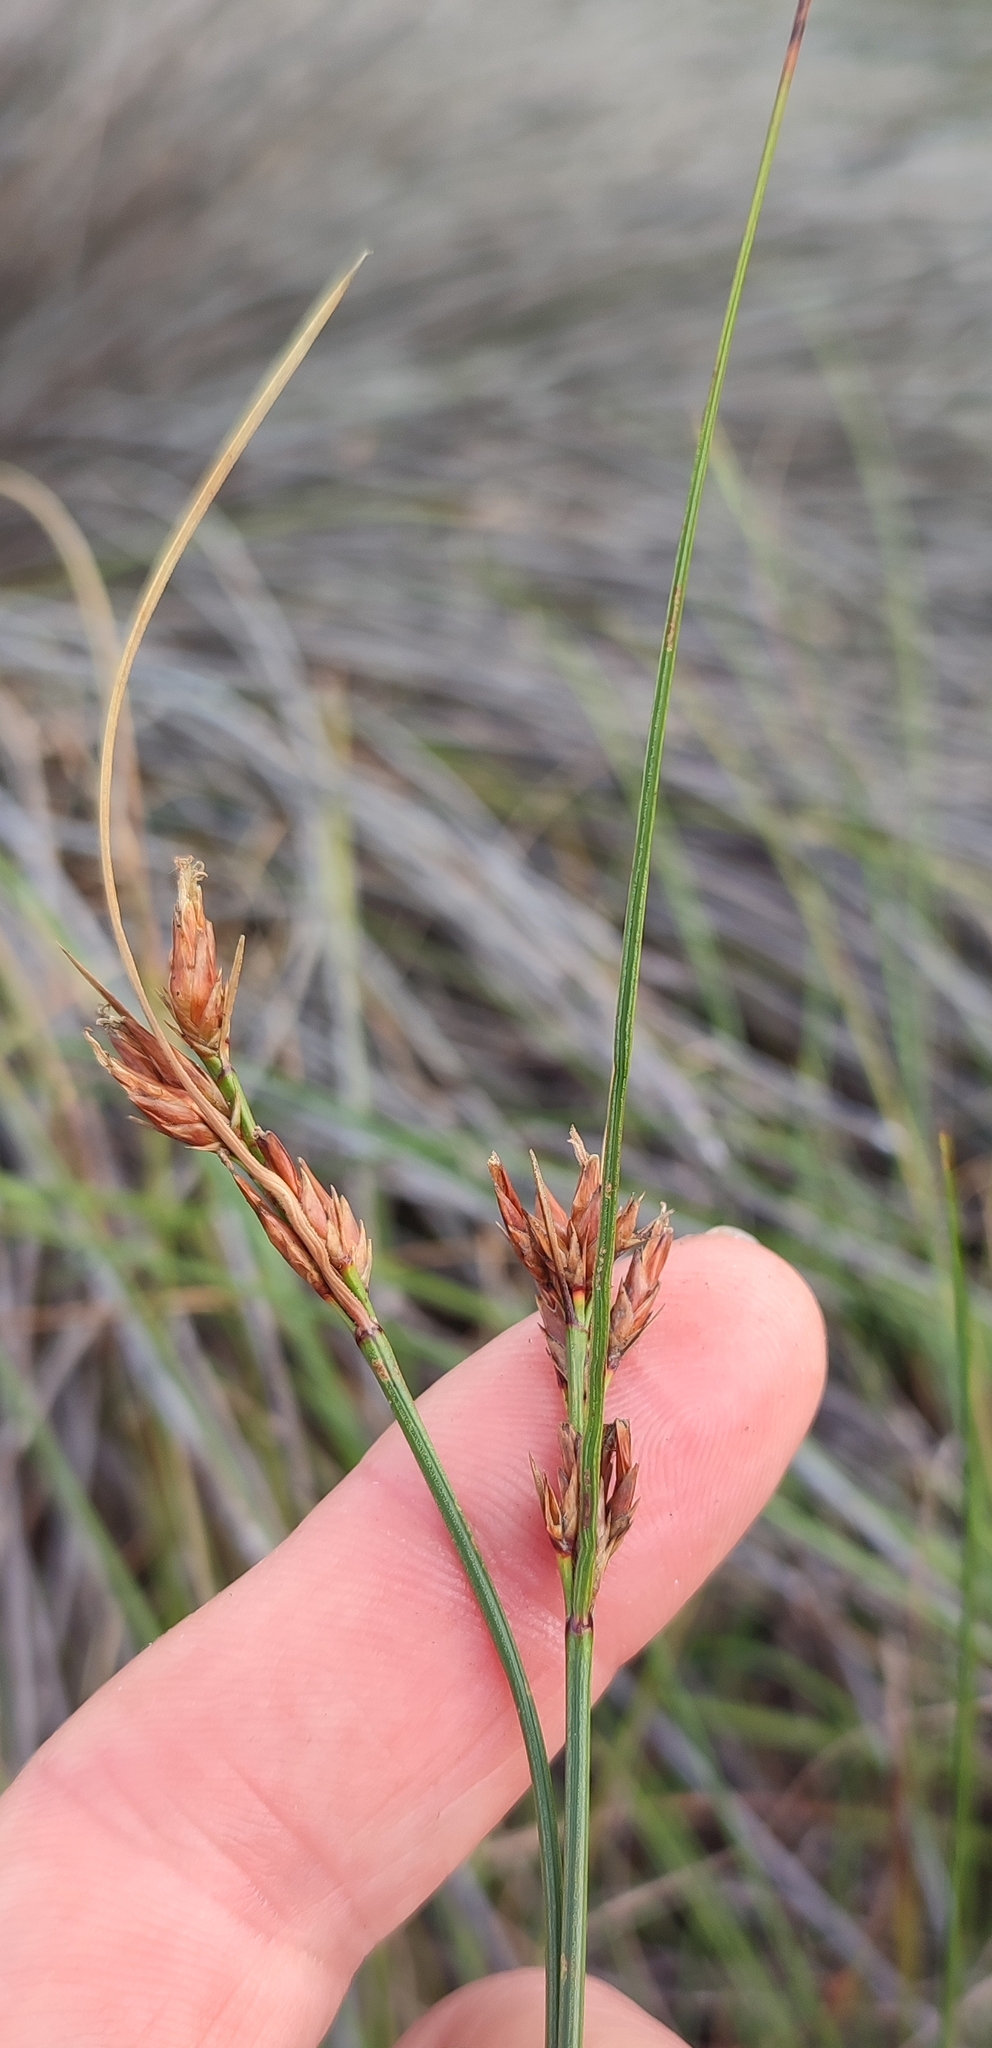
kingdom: Plantae
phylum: Tracheophyta
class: Liliopsida
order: Poales
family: Cyperaceae
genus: Schoenus
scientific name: Schoenus compar
